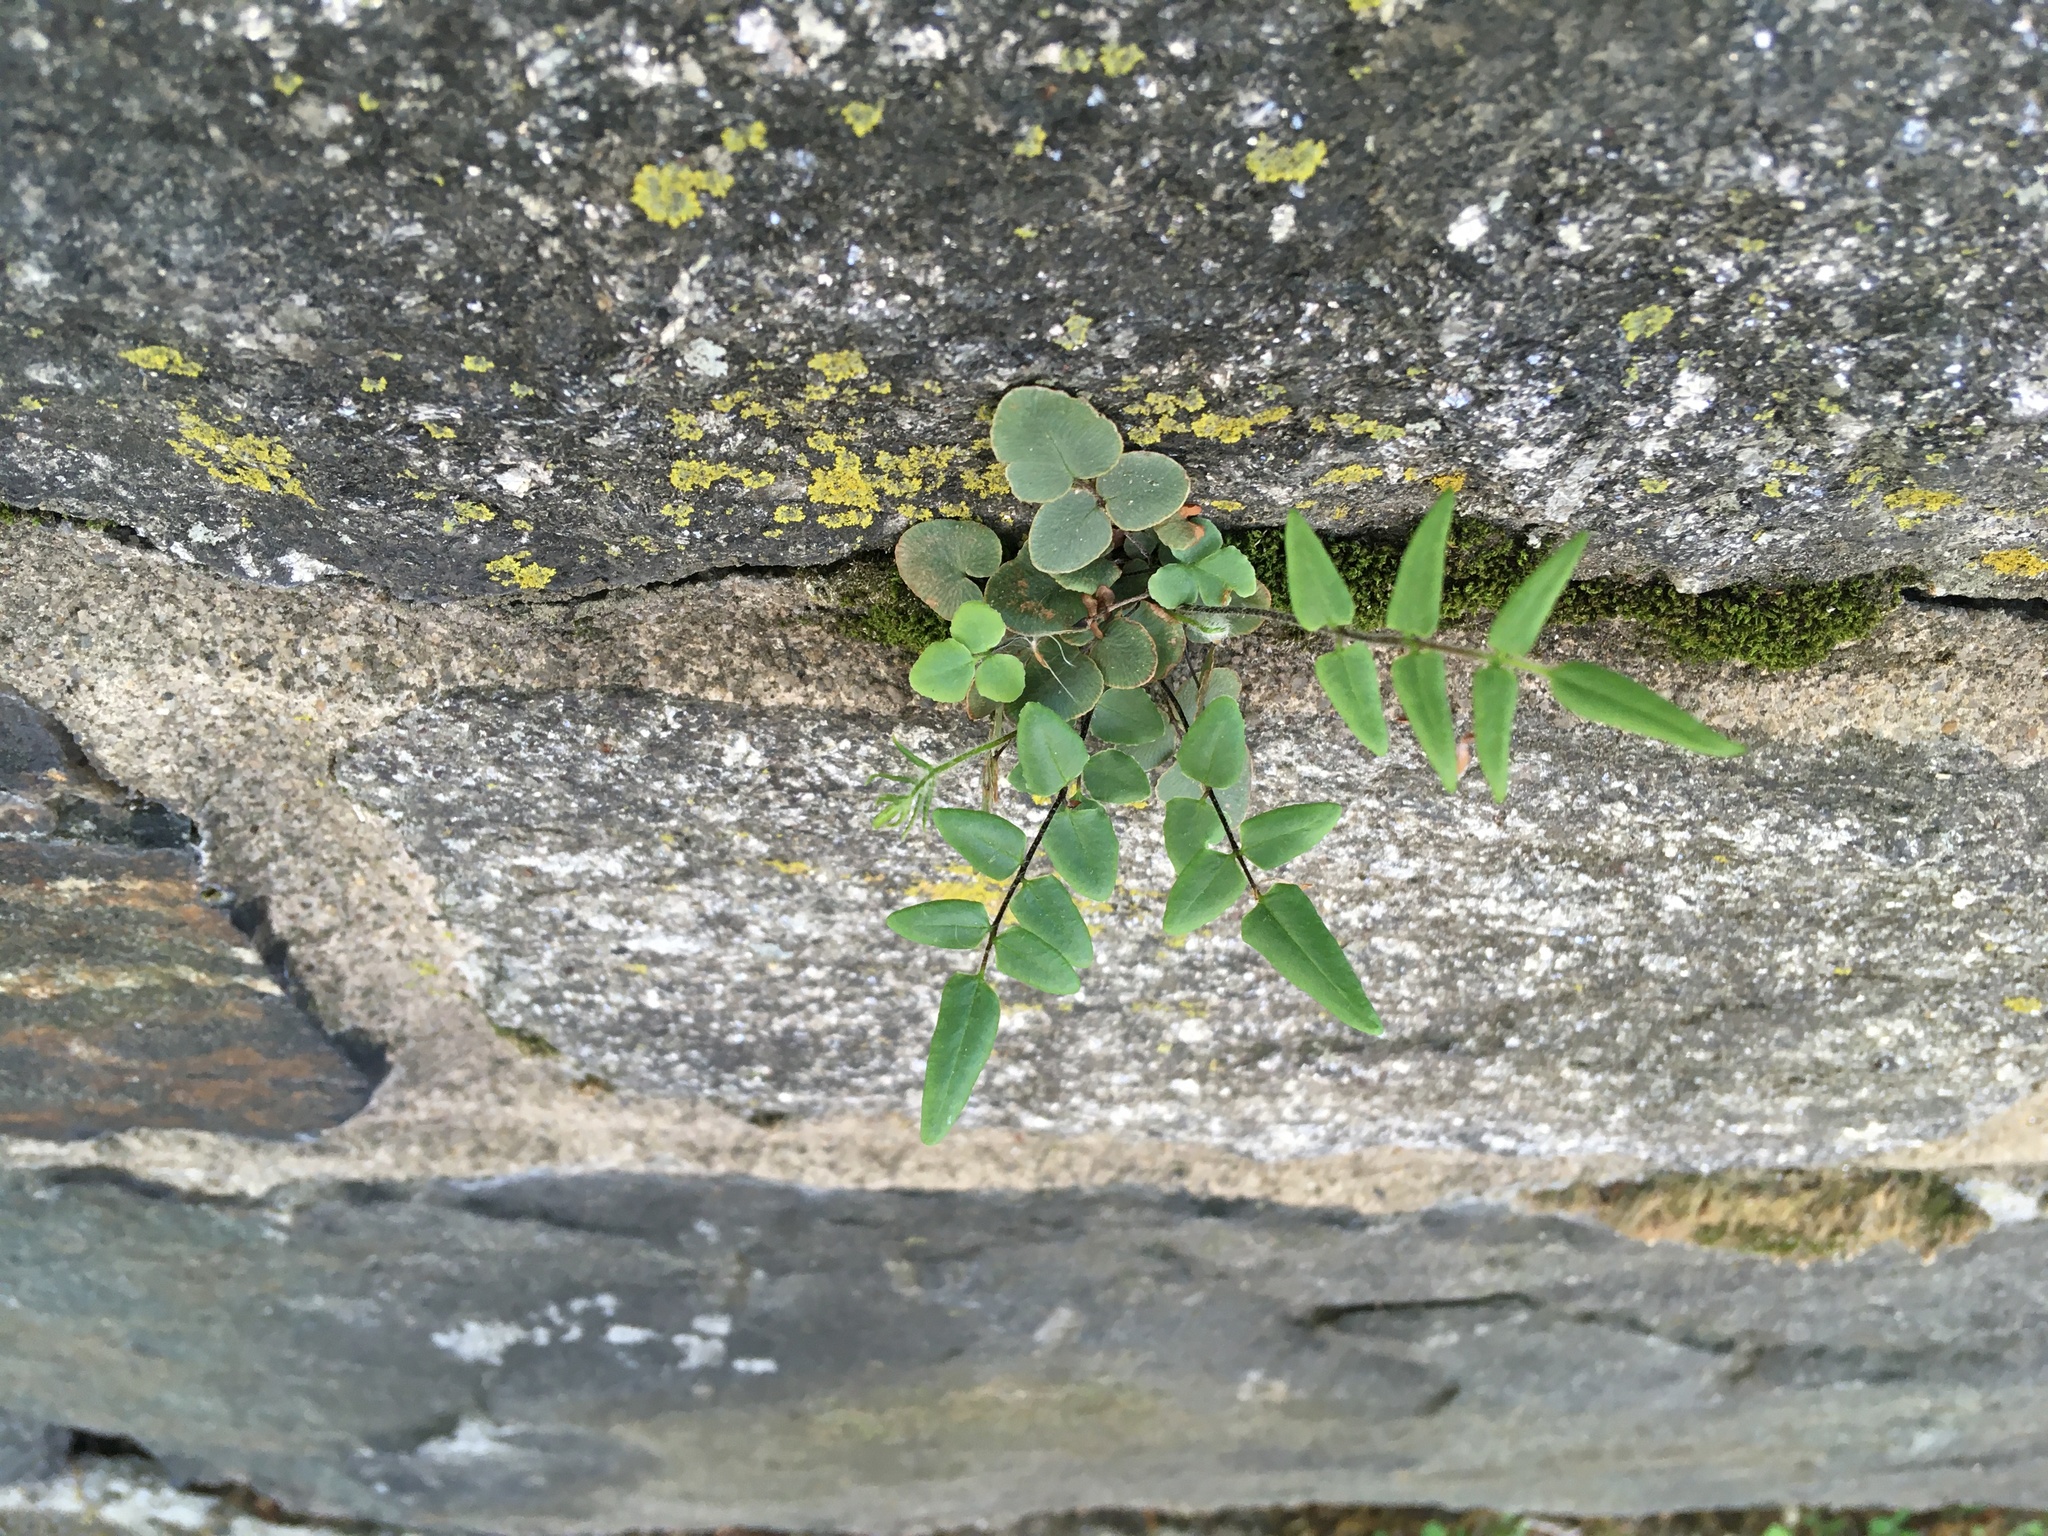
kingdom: Plantae
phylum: Tracheophyta
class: Polypodiopsida
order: Polypodiales
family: Pteridaceae
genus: Pellaea
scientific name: Pellaea atropurpurea
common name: Hairy cliffbrake
